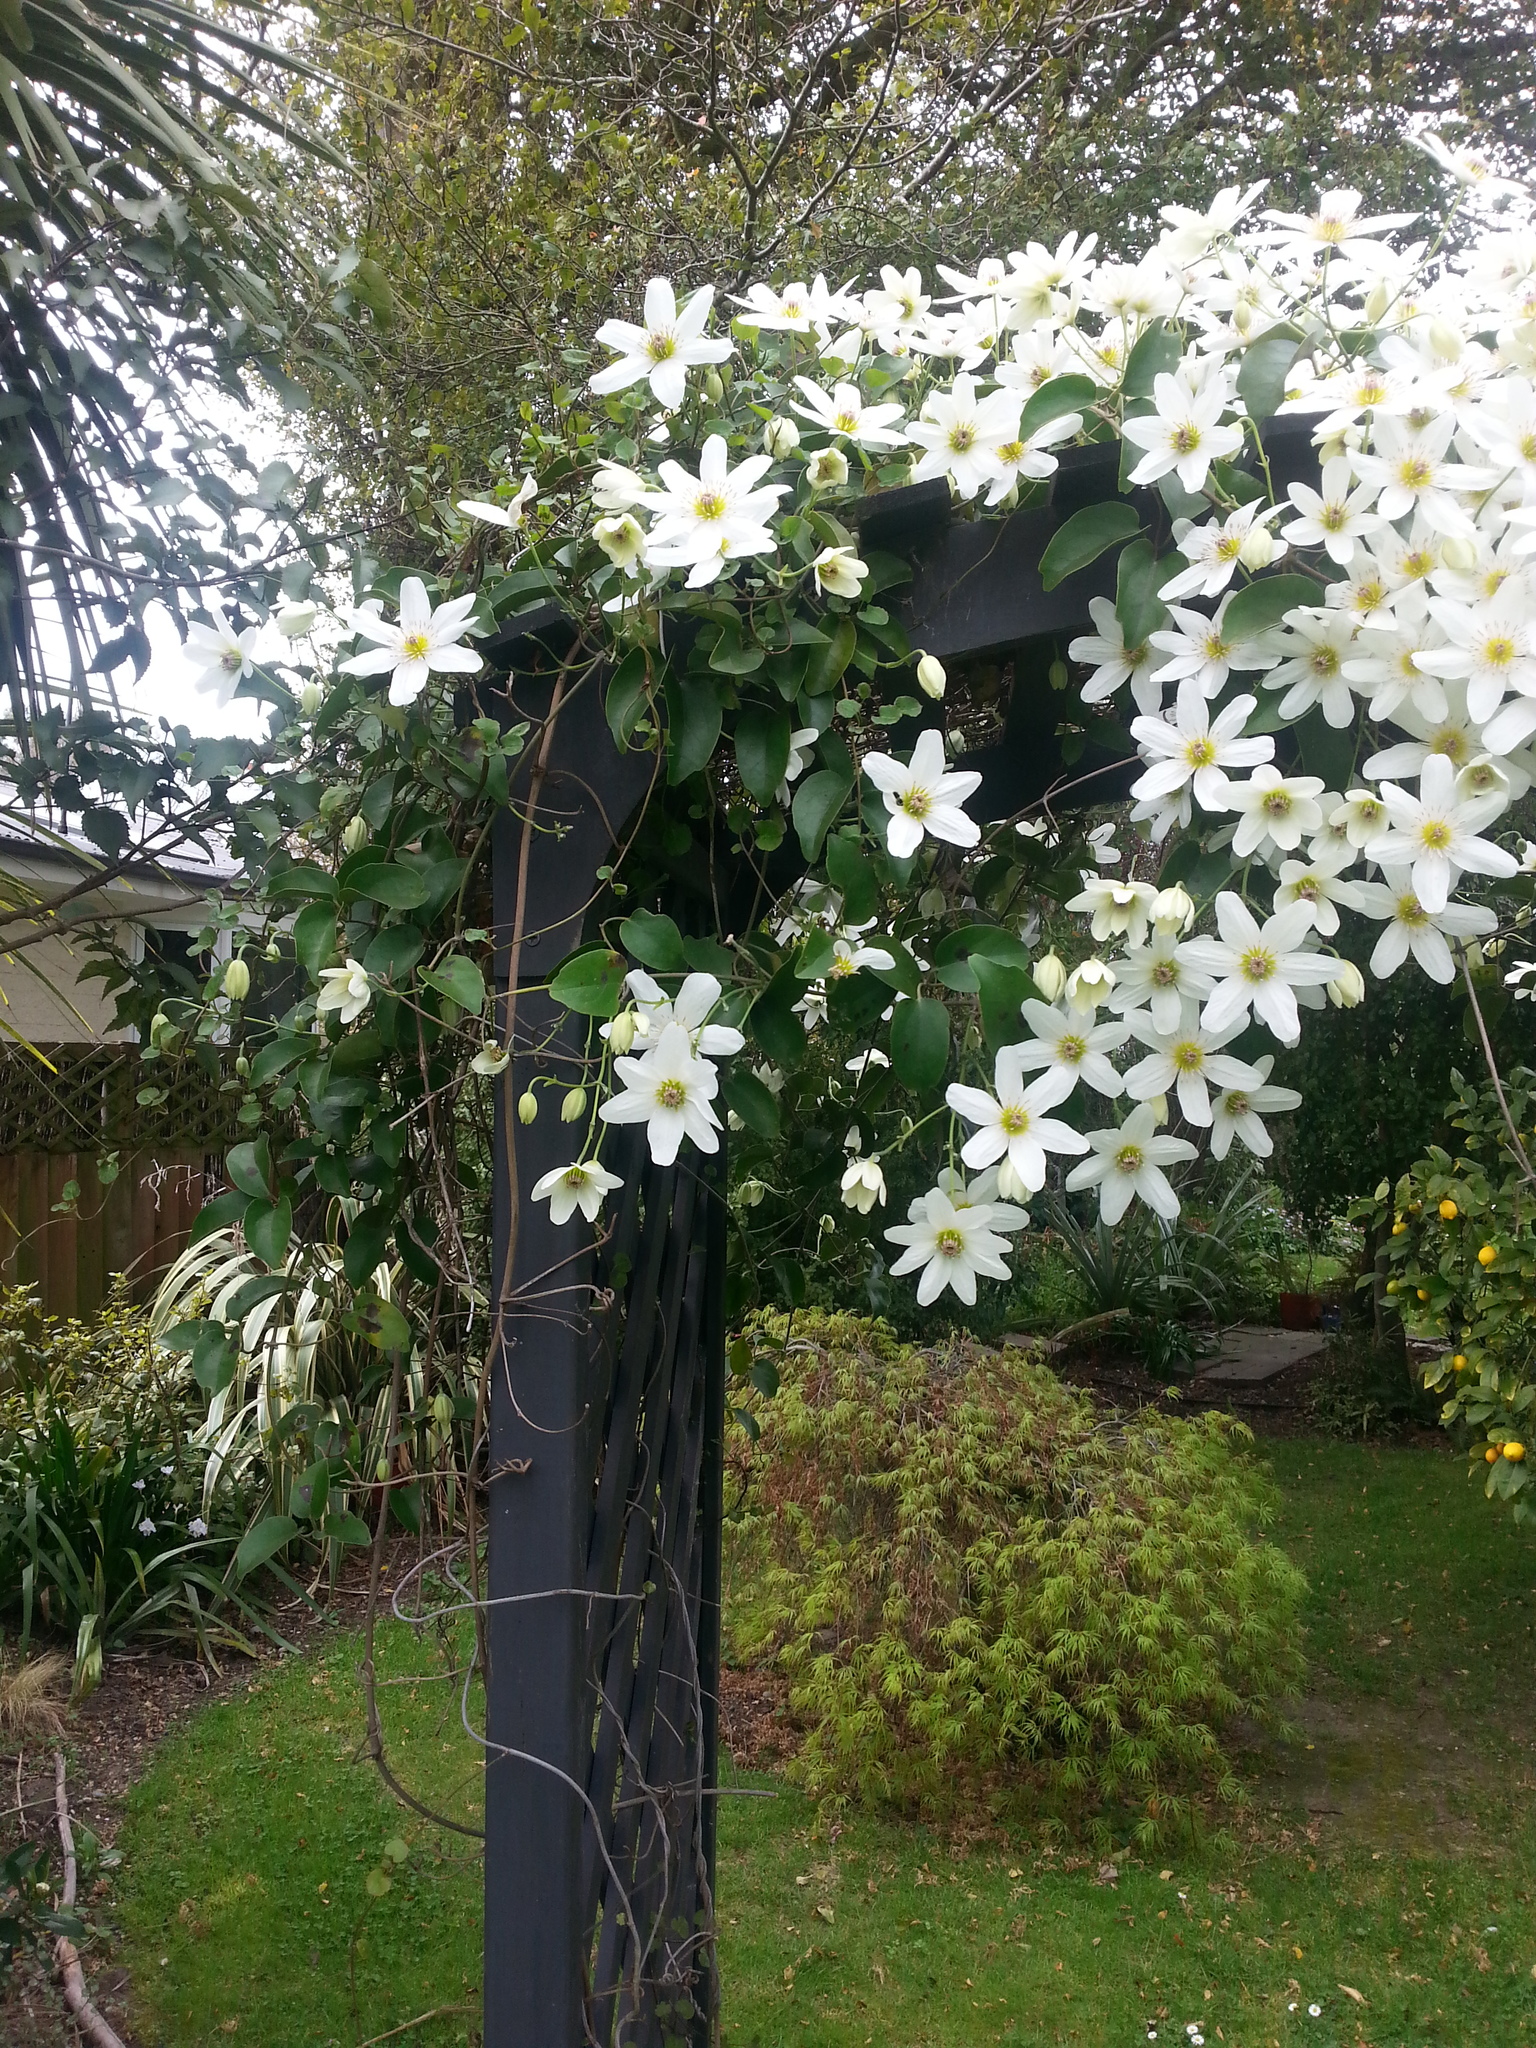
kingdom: Plantae
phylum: Tracheophyta
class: Magnoliopsida
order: Ranunculales
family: Ranunculaceae
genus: Clematis
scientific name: Clematis paniculata
